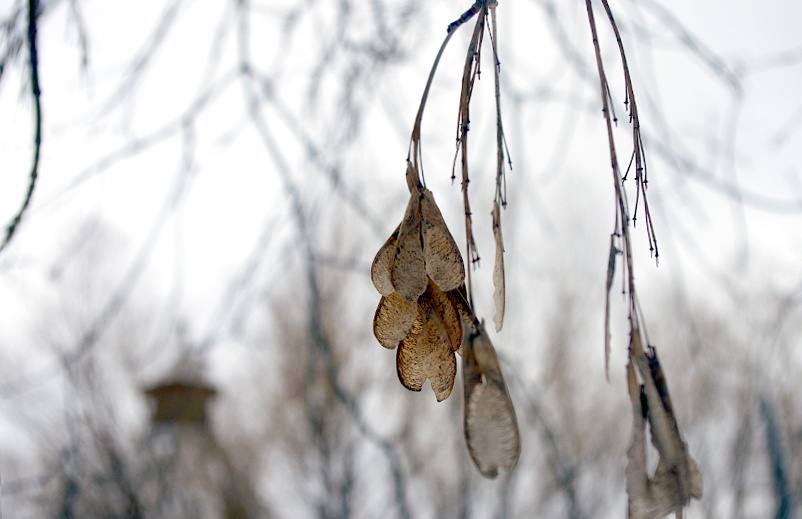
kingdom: Plantae
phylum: Tracheophyta
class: Magnoliopsida
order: Sapindales
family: Sapindaceae
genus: Acer
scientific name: Acer negundo
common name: Ashleaf maple
